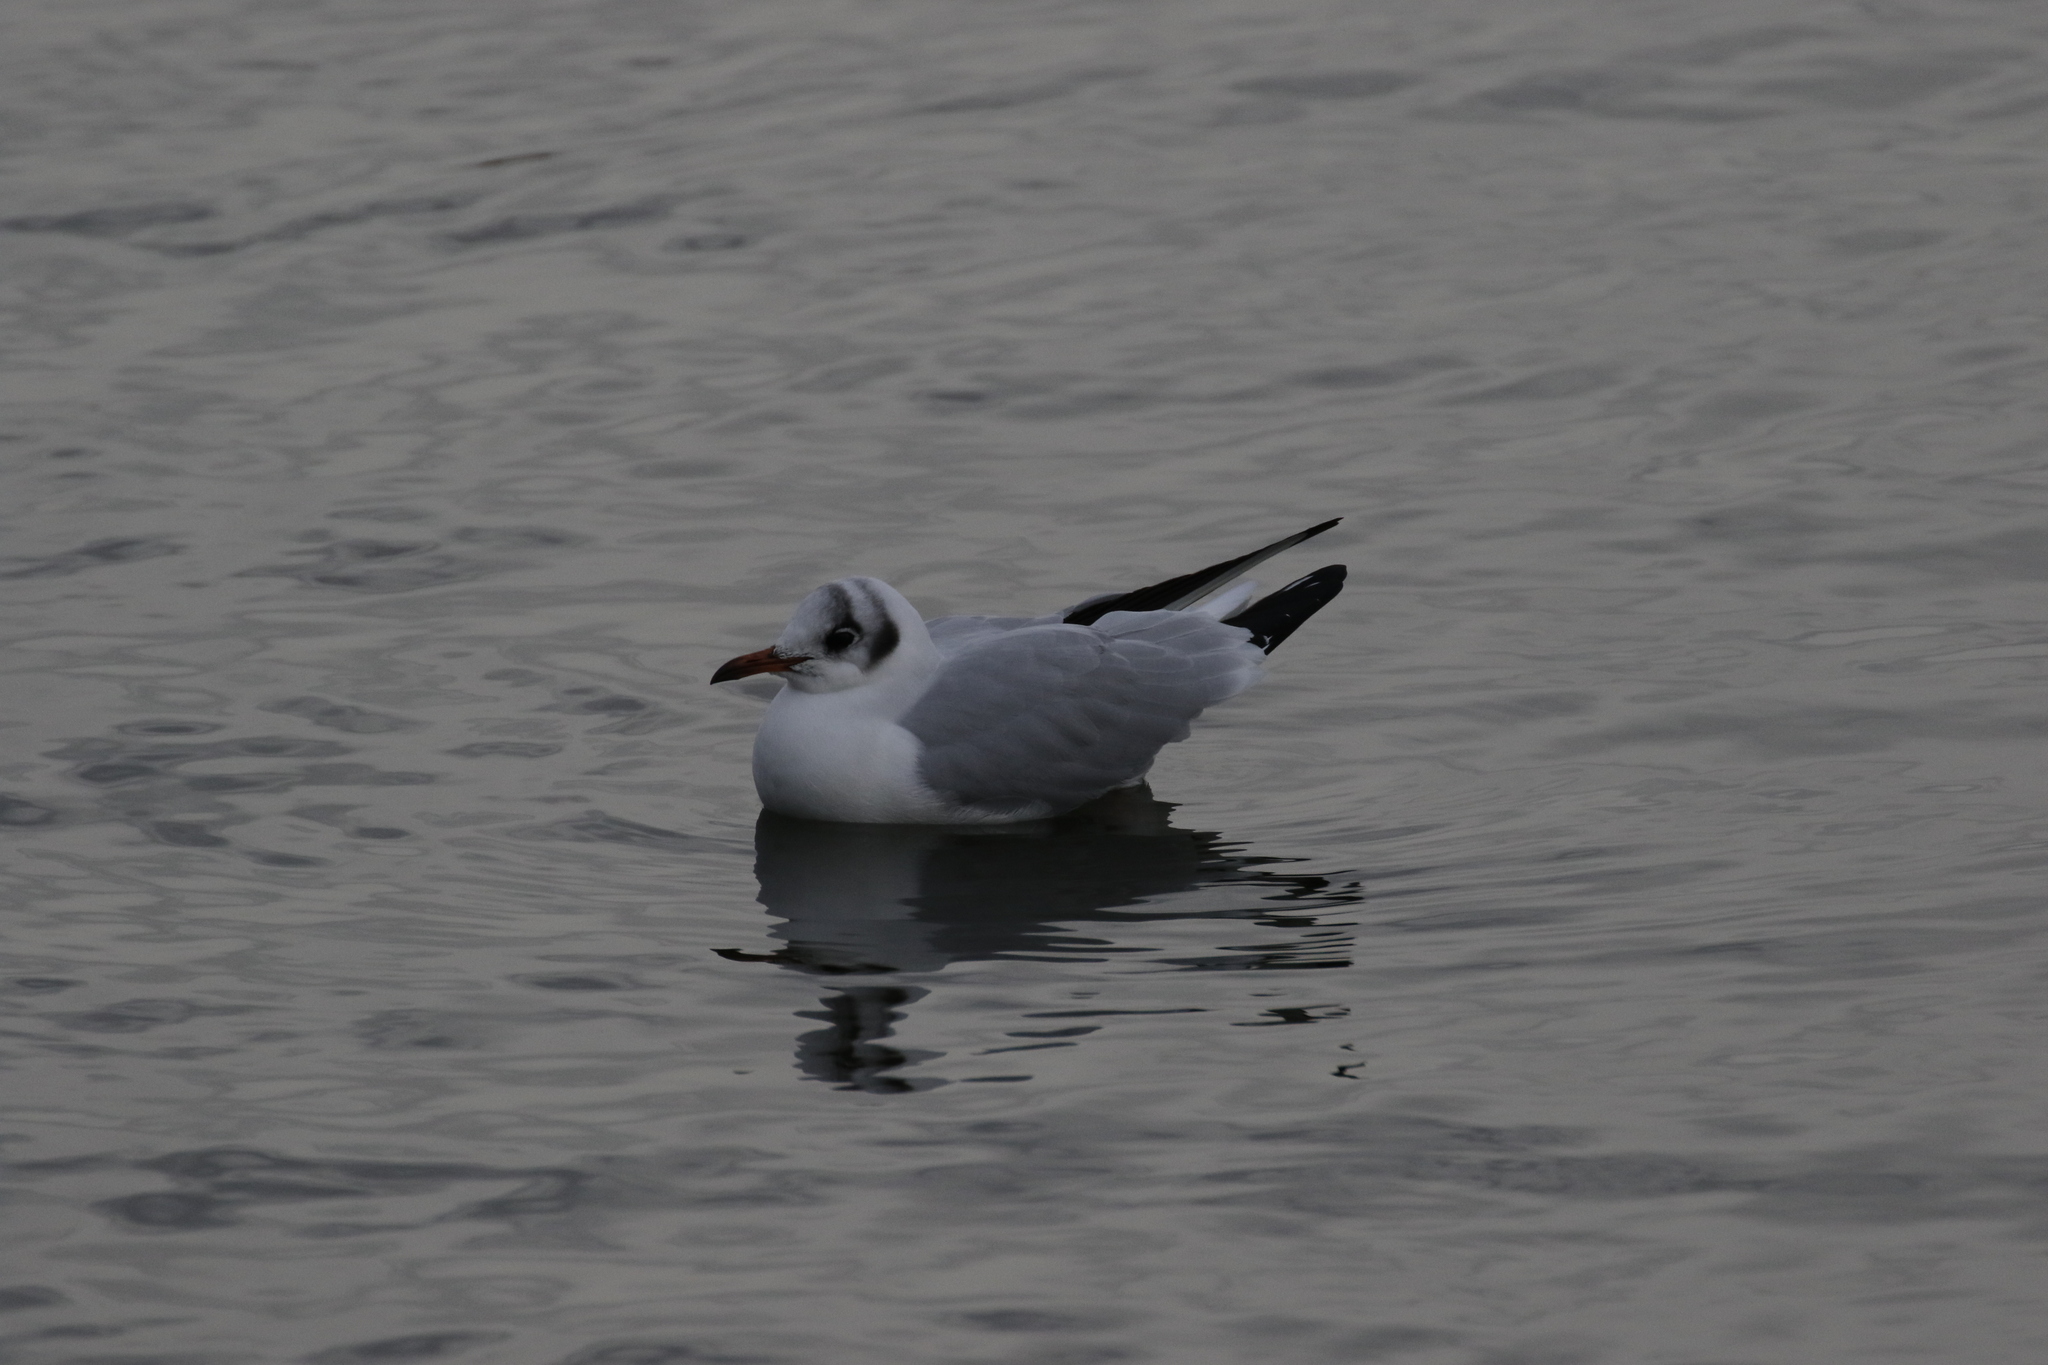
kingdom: Animalia
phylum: Chordata
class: Aves
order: Charadriiformes
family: Laridae
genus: Chroicocephalus
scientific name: Chroicocephalus ridibundus
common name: Black-headed gull
